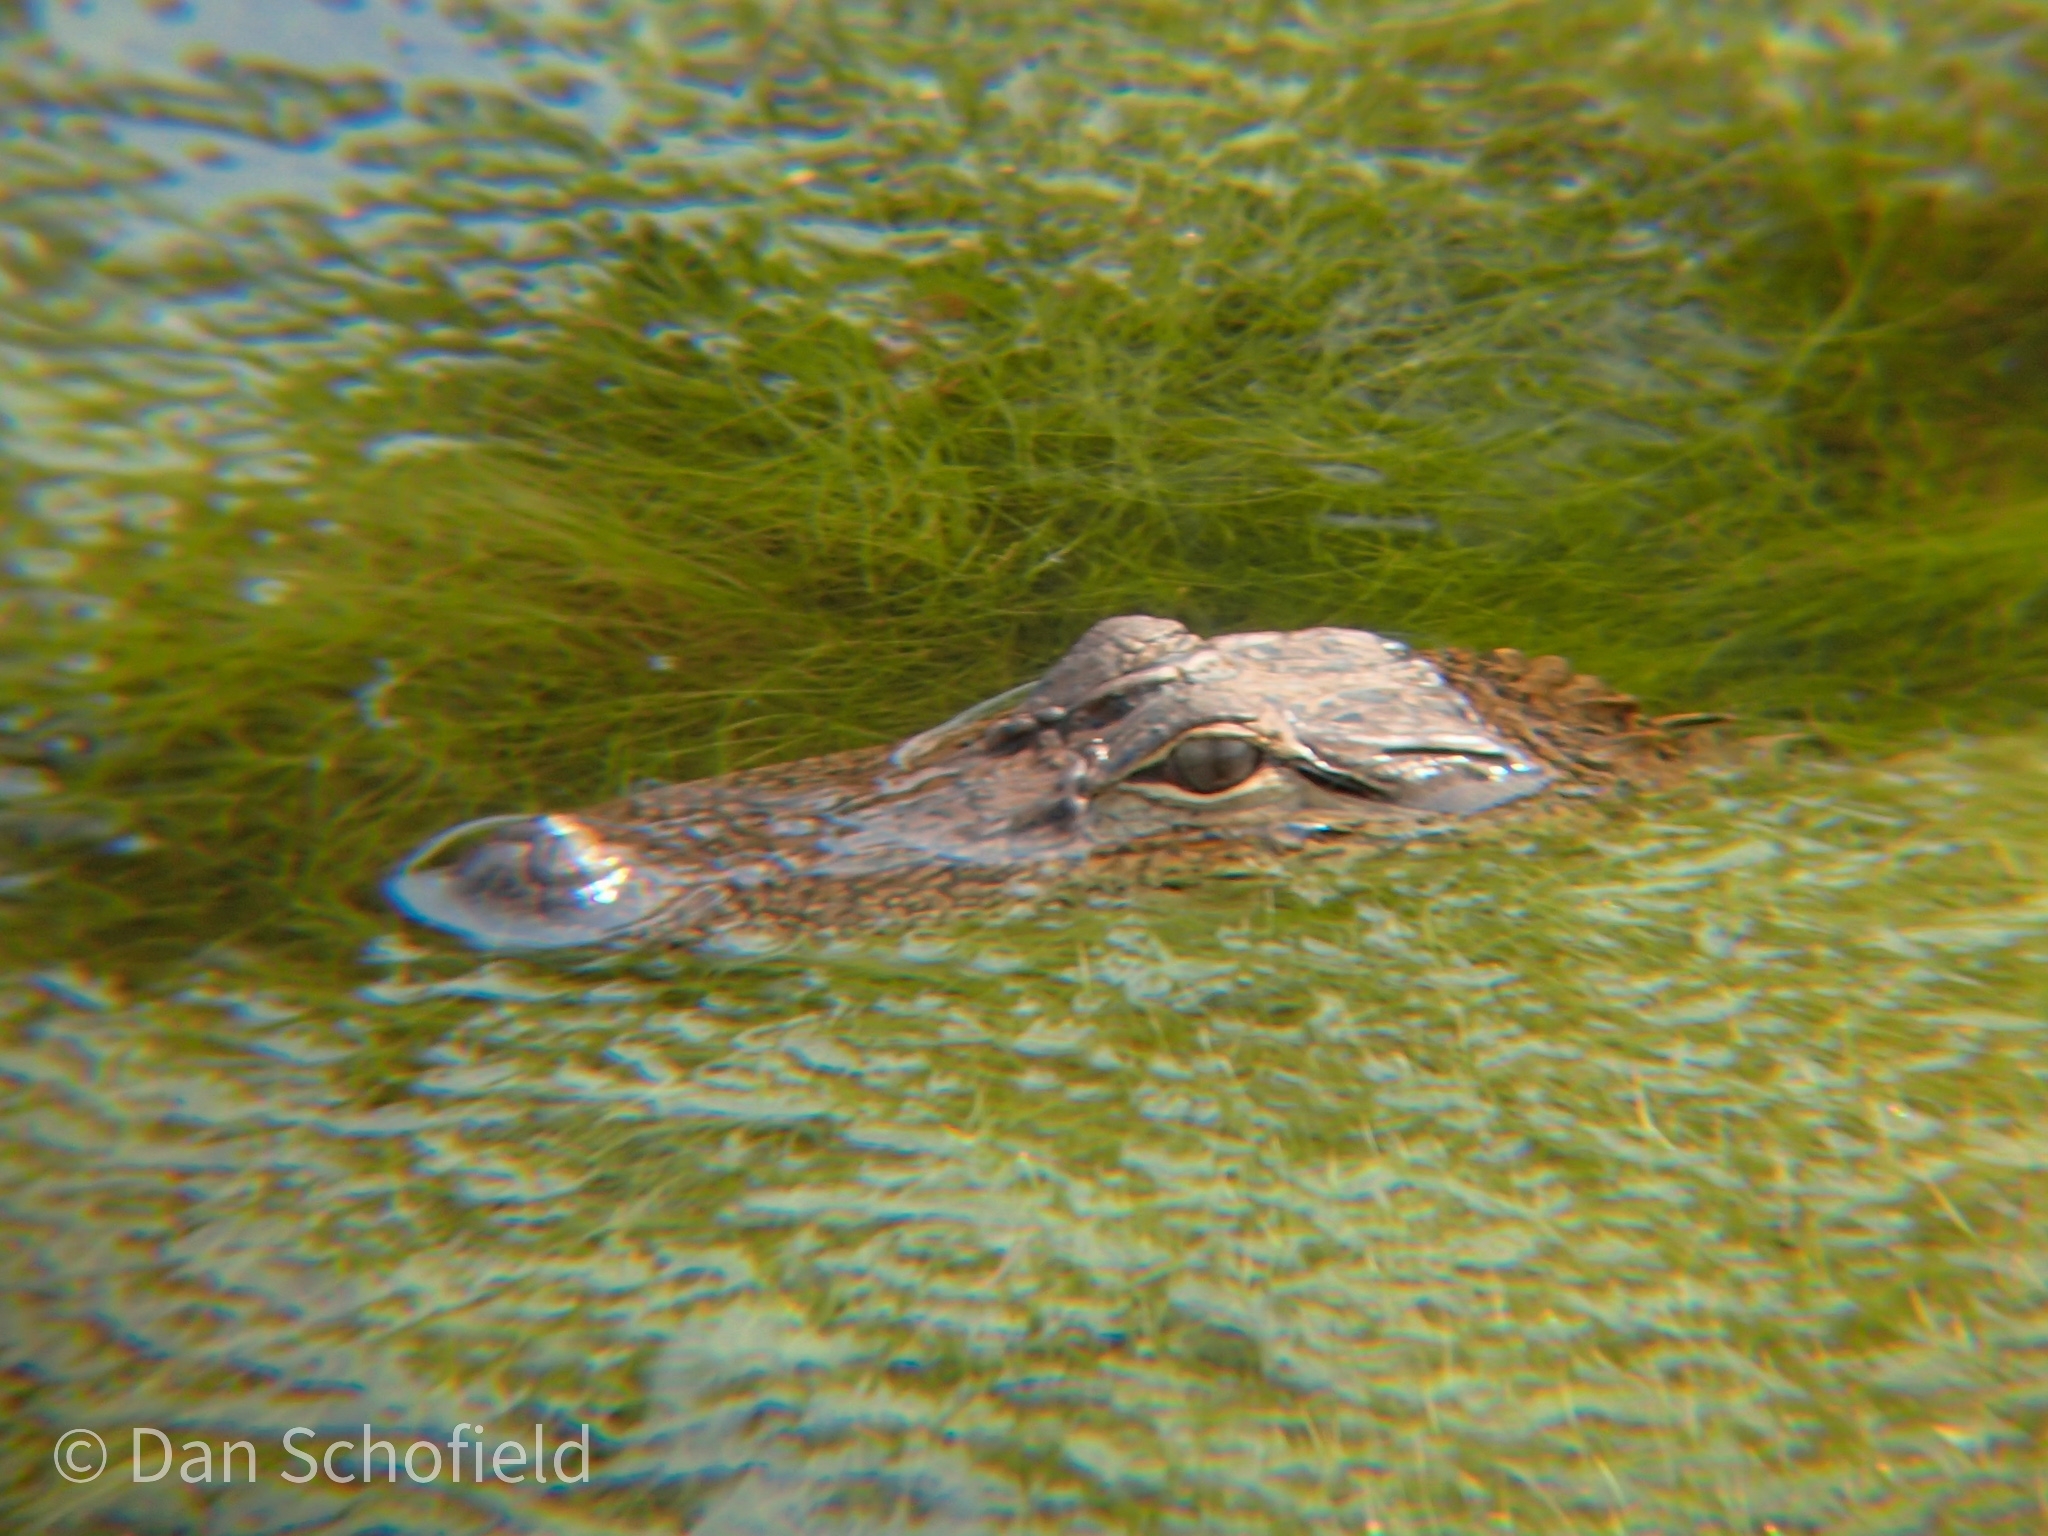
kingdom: Animalia
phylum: Chordata
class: Crocodylia
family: Alligatoridae
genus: Alligator
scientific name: Alligator mississippiensis
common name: American alligator
